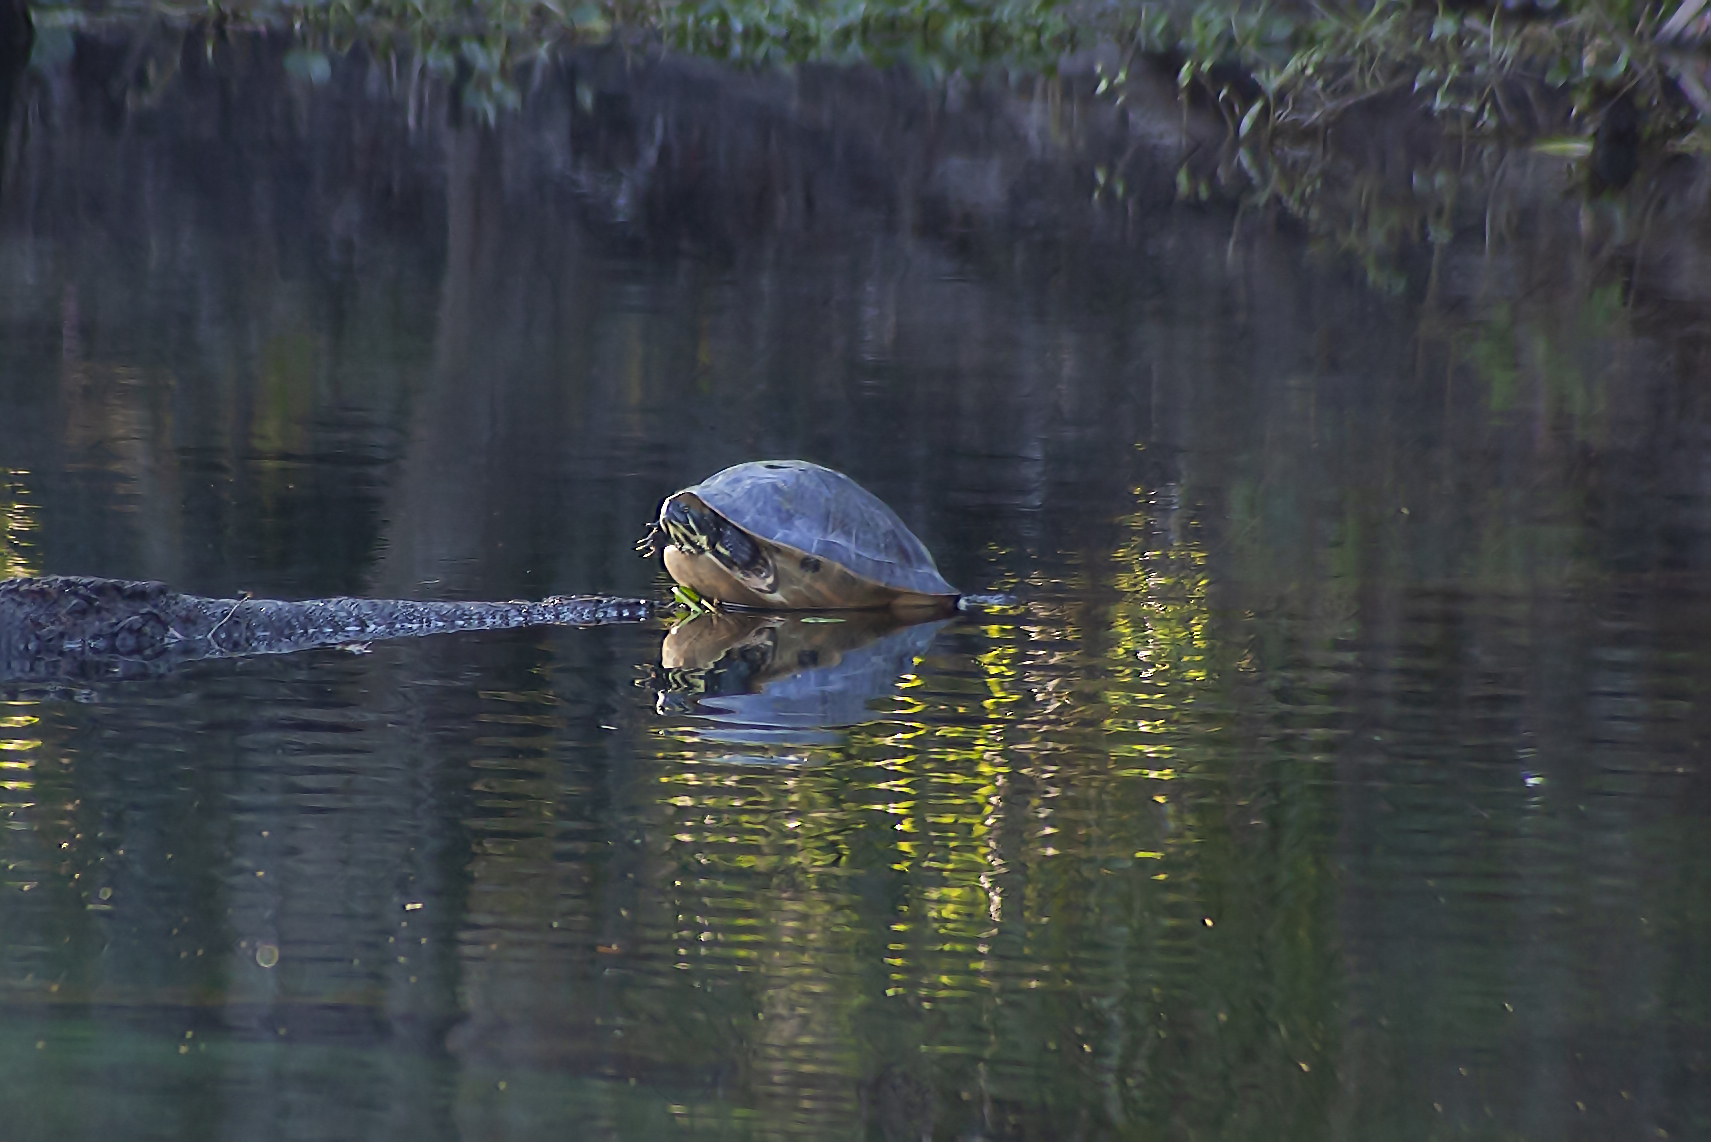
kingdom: Animalia
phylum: Chordata
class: Testudines
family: Emydidae
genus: Pseudemys
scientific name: Pseudemys peninsularis
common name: Peninsula cooter
